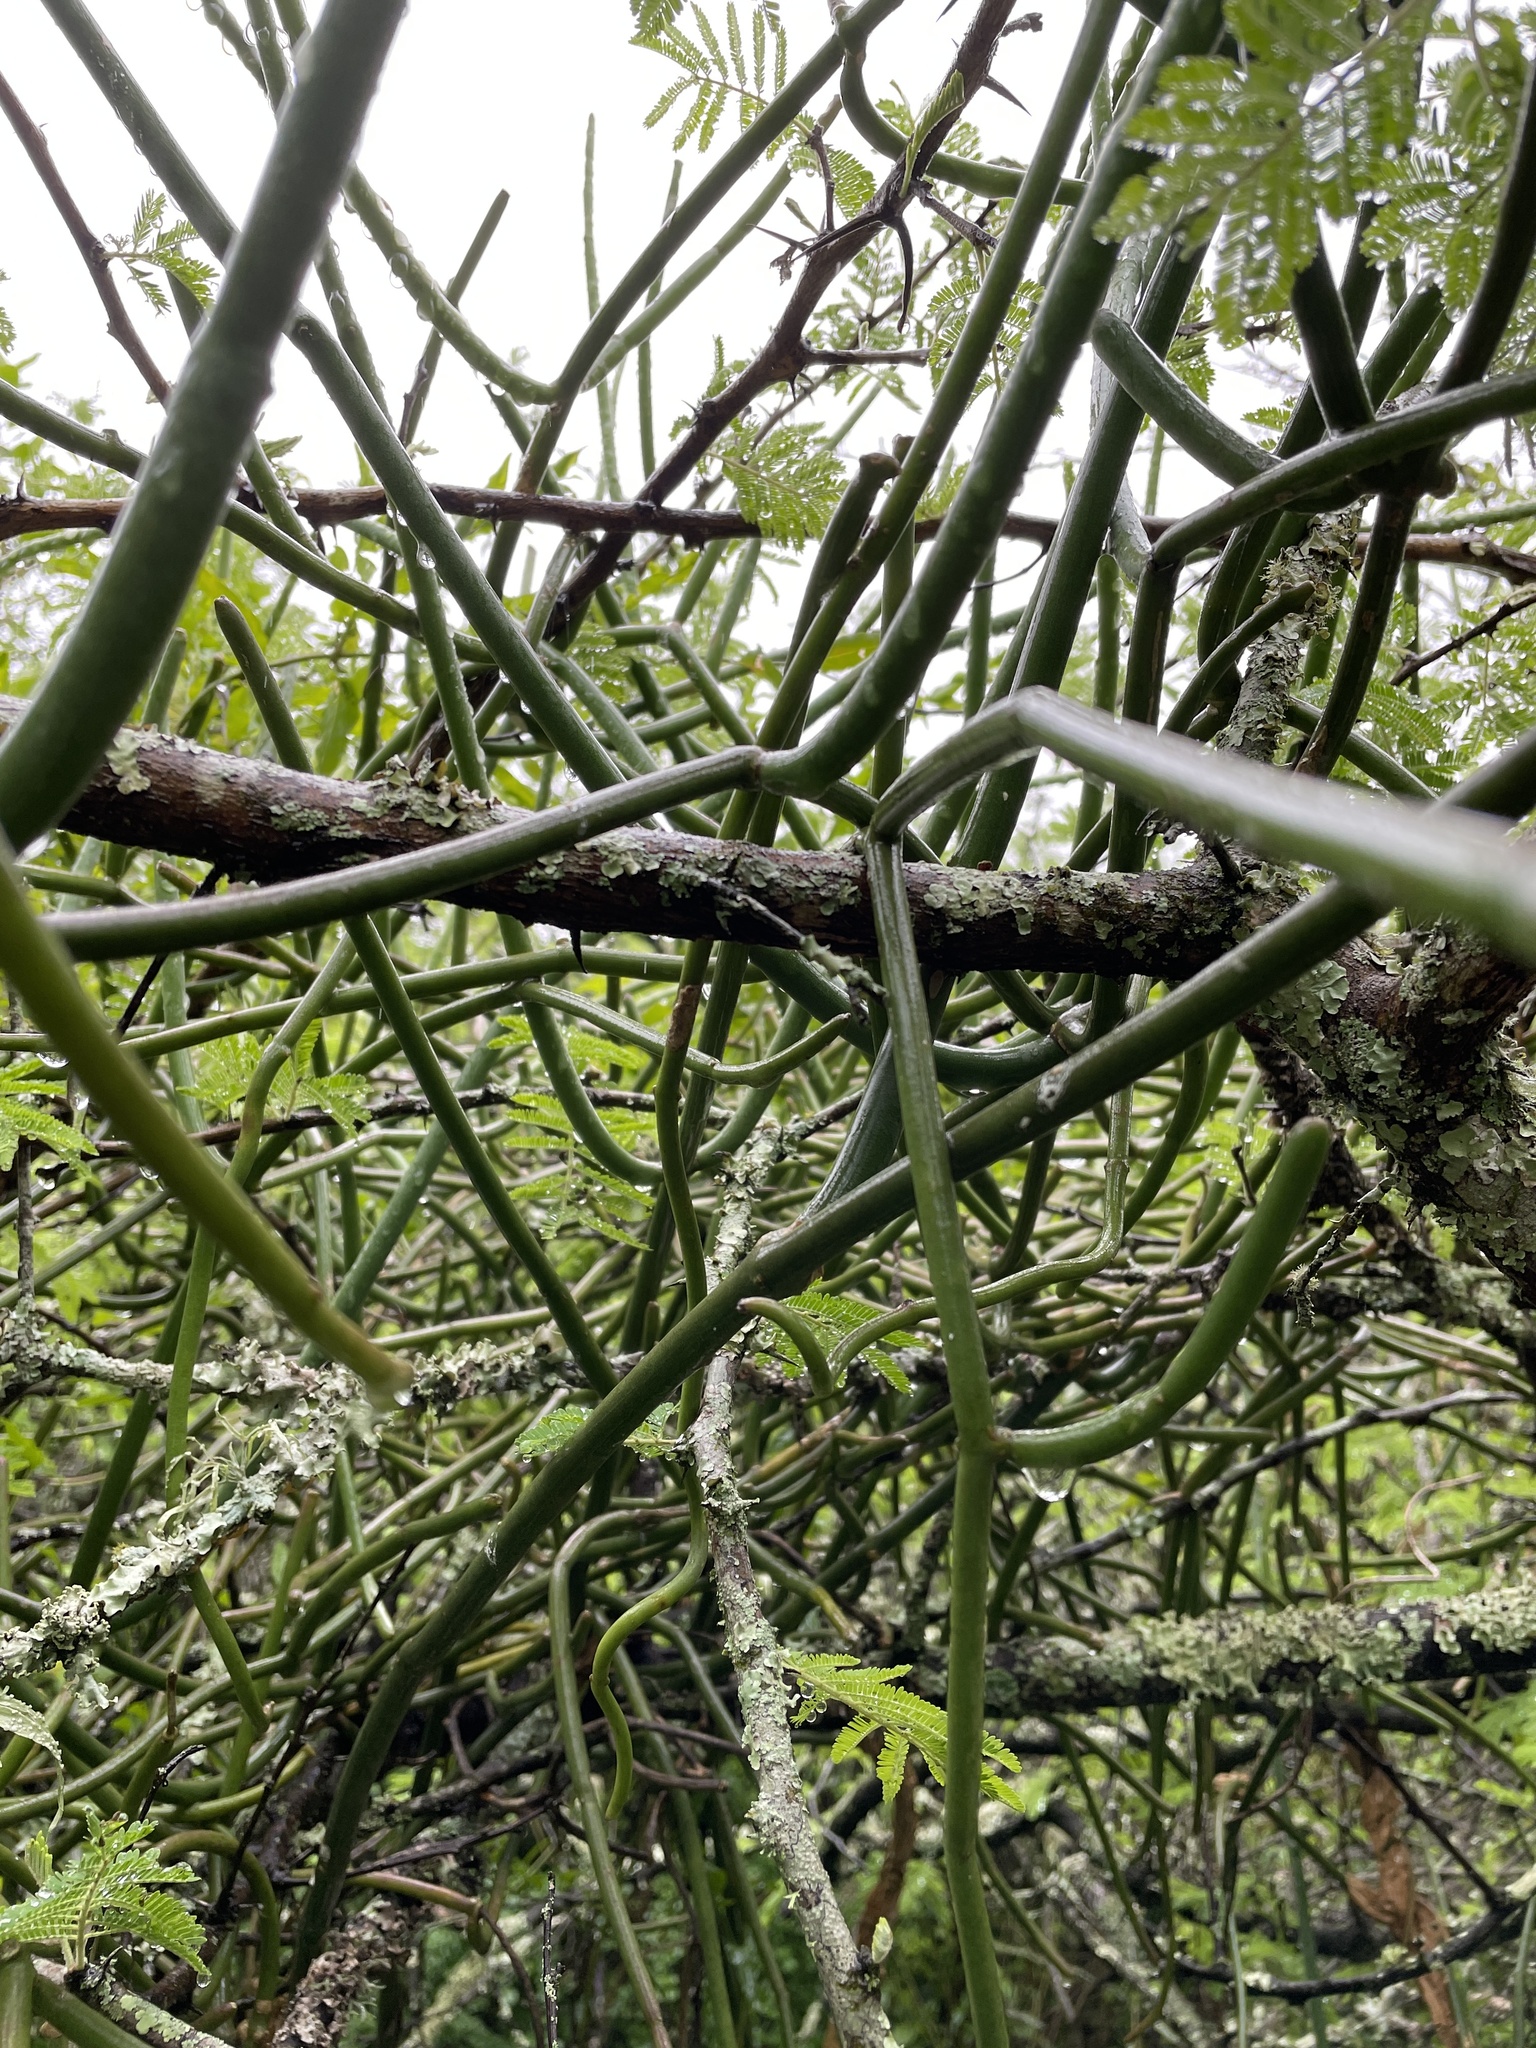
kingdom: Plantae
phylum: Tracheophyta
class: Magnoliopsida
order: Gentianales
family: Apocynaceae
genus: Cynanchum
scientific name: Cynanchum viminale
